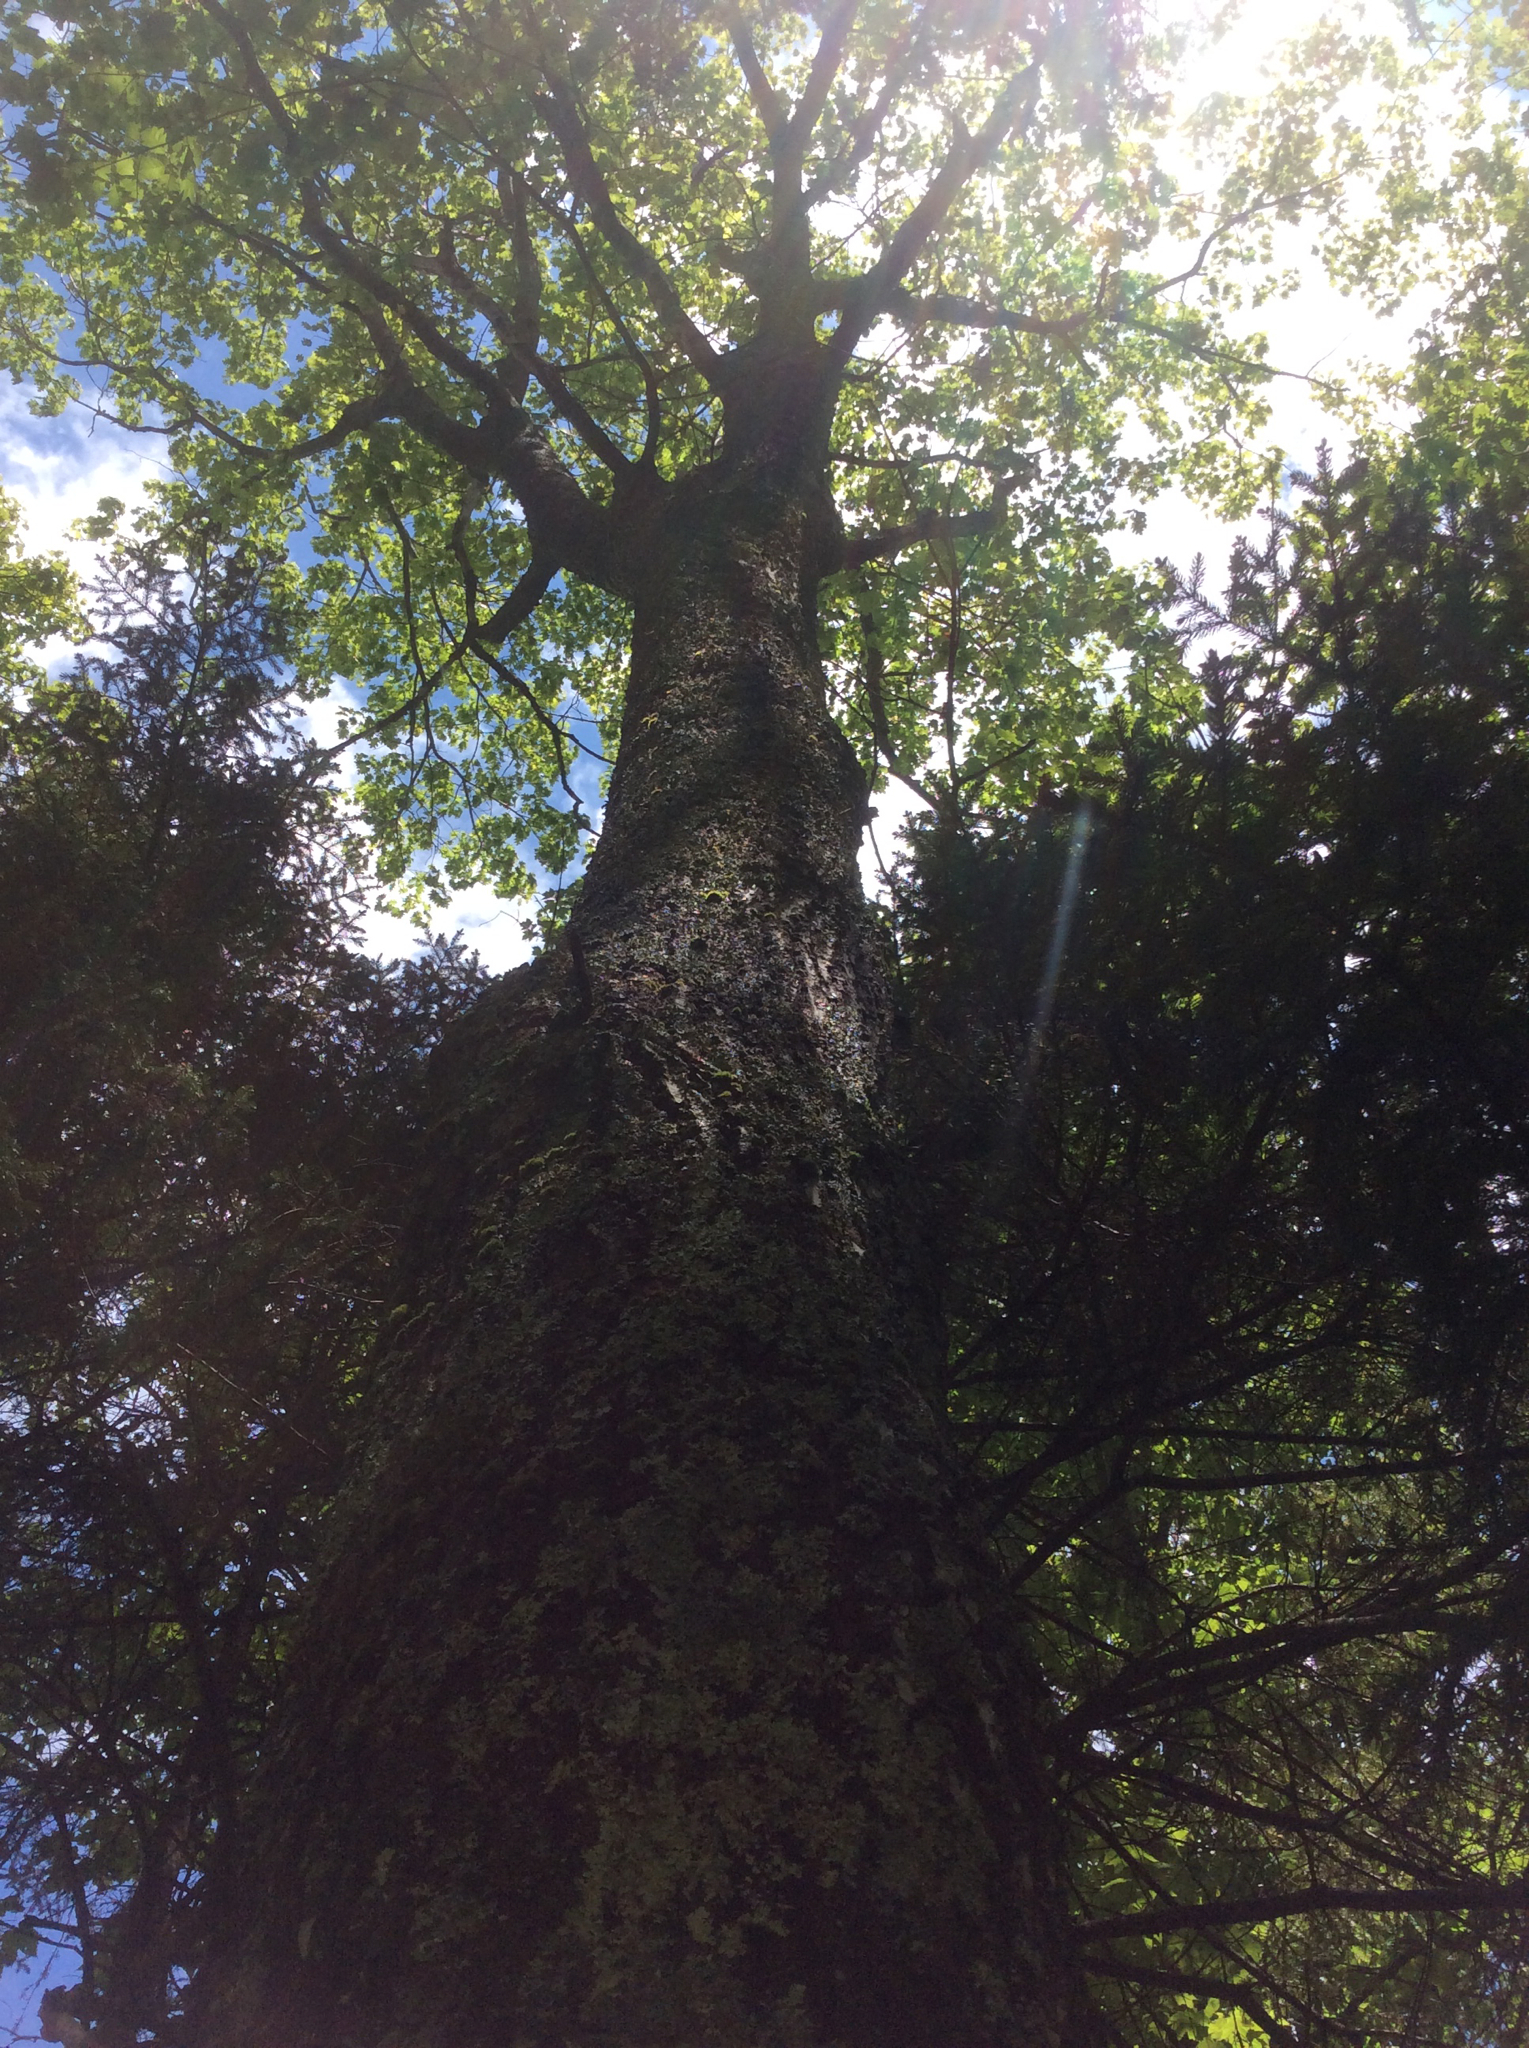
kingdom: Plantae
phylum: Tracheophyta
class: Magnoliopsida
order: Fagales
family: Fagaceae
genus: Quercus
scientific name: Quercus rubra
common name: Red oak
